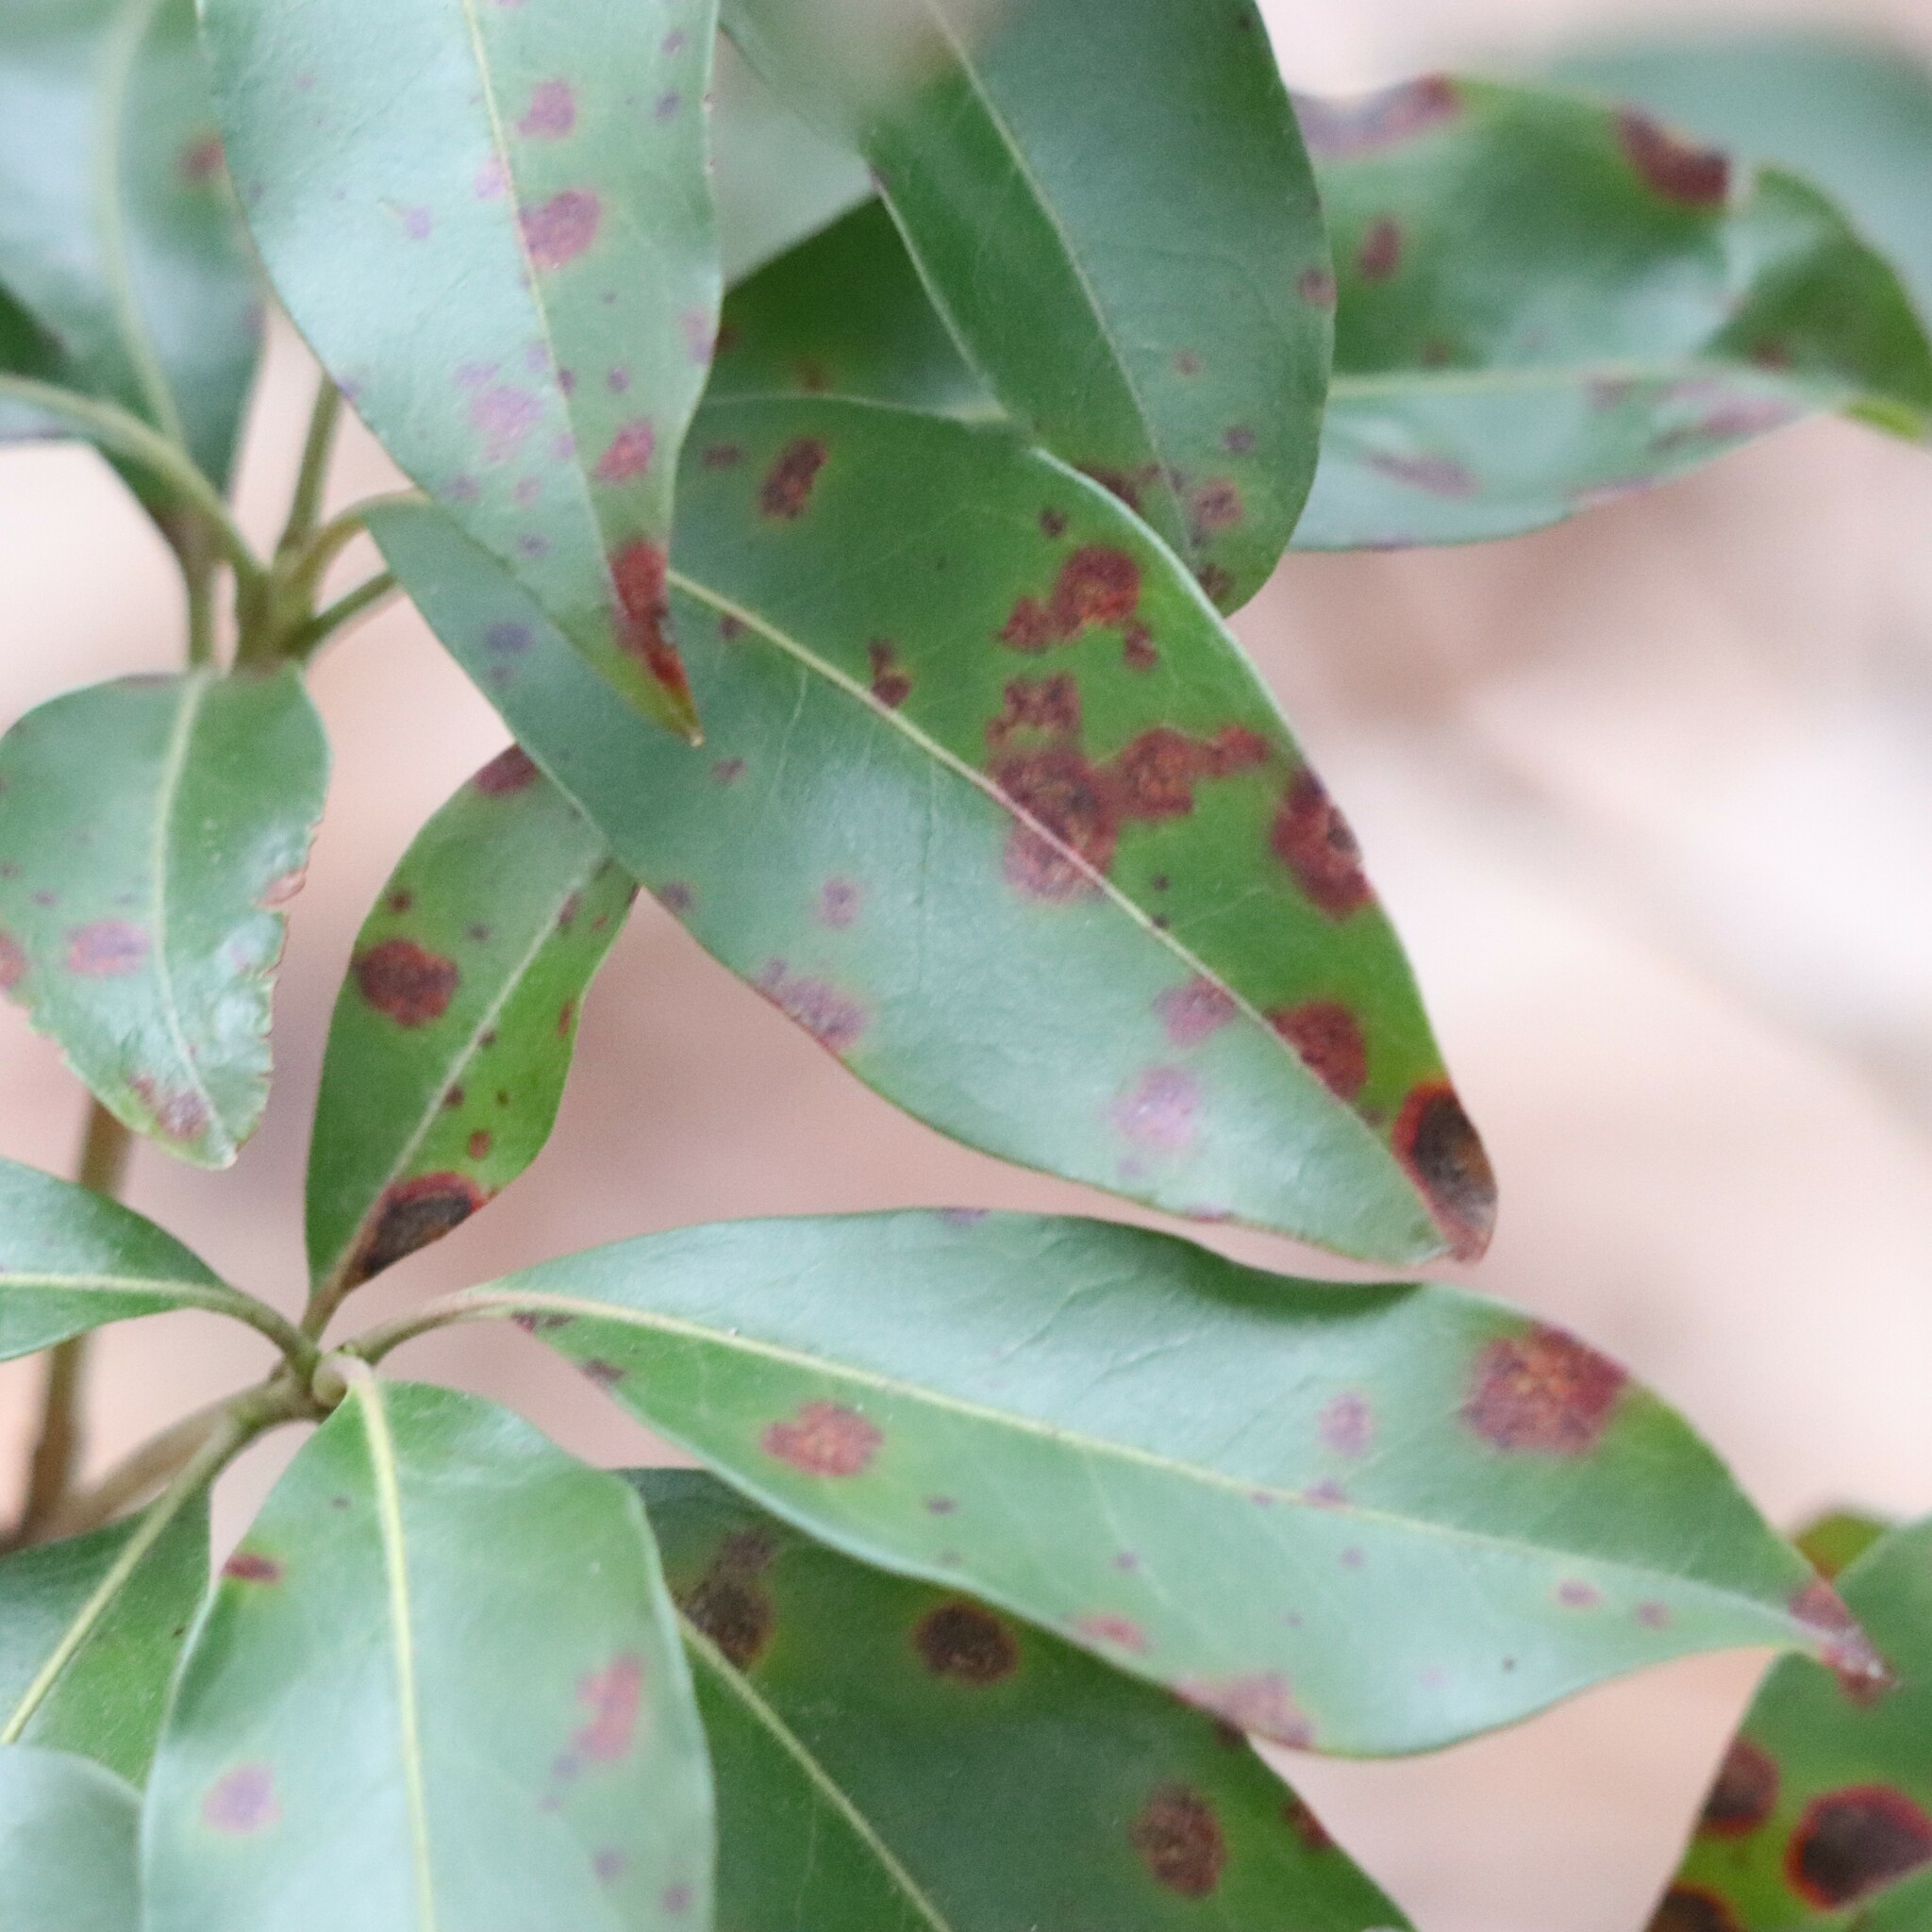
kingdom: Fungi
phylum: Ascomycota
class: Sordariomycetes
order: Diaporthales
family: Diaporthaceae
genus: Diaporthe
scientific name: Diaporthe kalmiae
